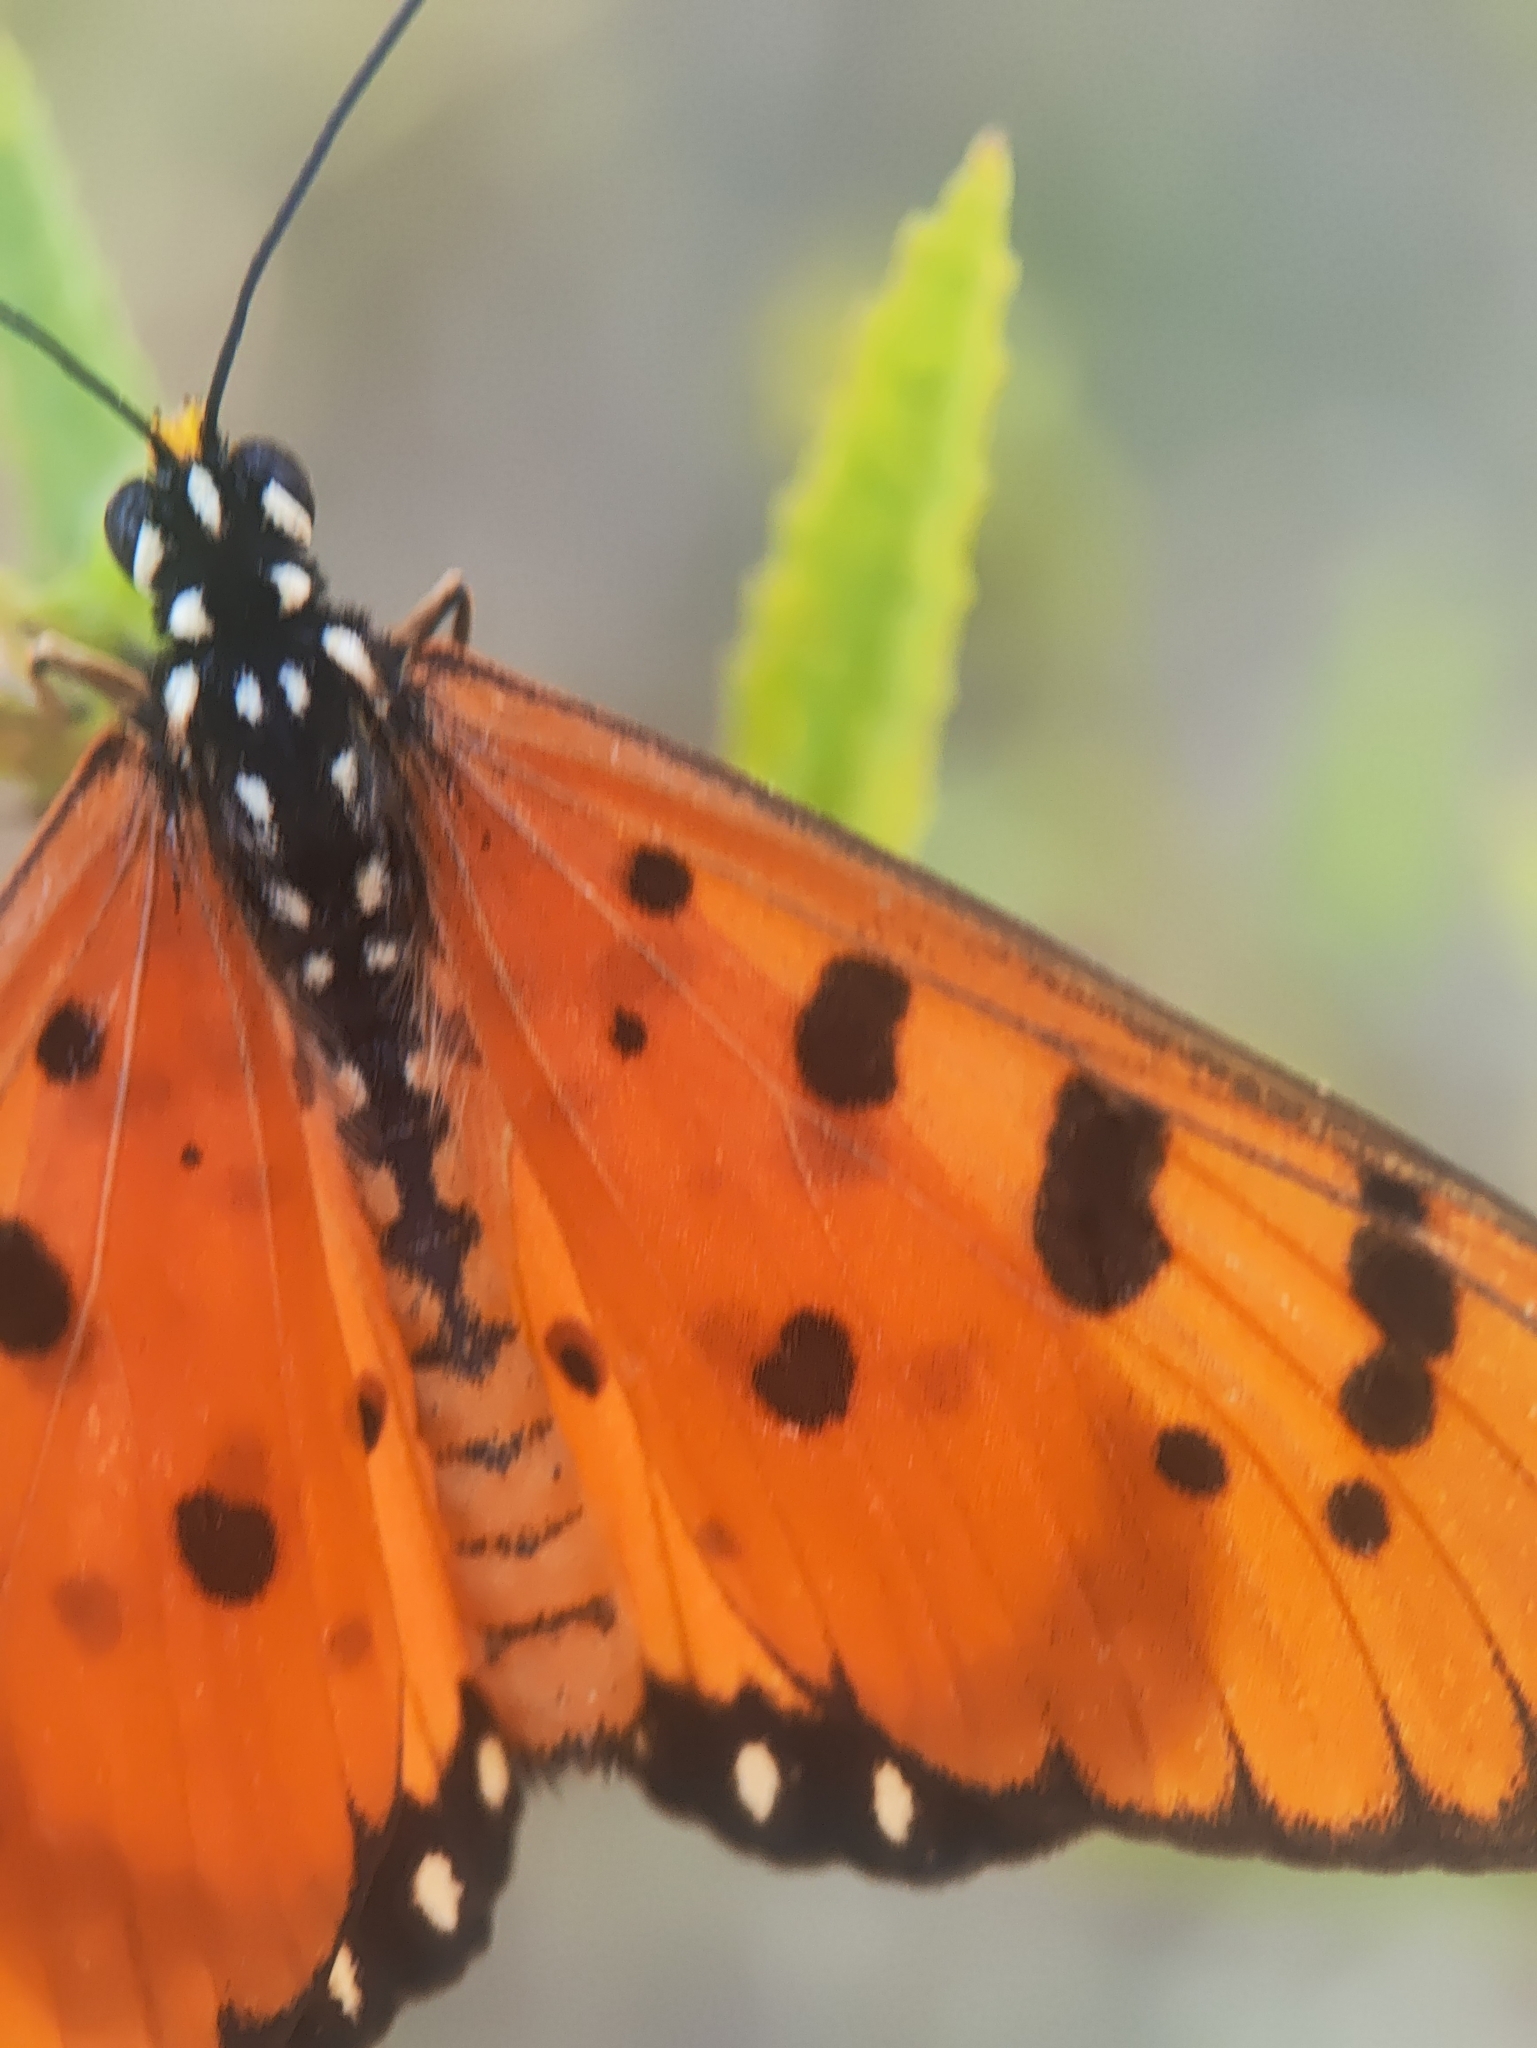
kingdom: Animalia
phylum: Arthropoda
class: Insecta
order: Lepidoptera
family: Nymphalidae
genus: Acraea
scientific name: Acraea terpsicore
